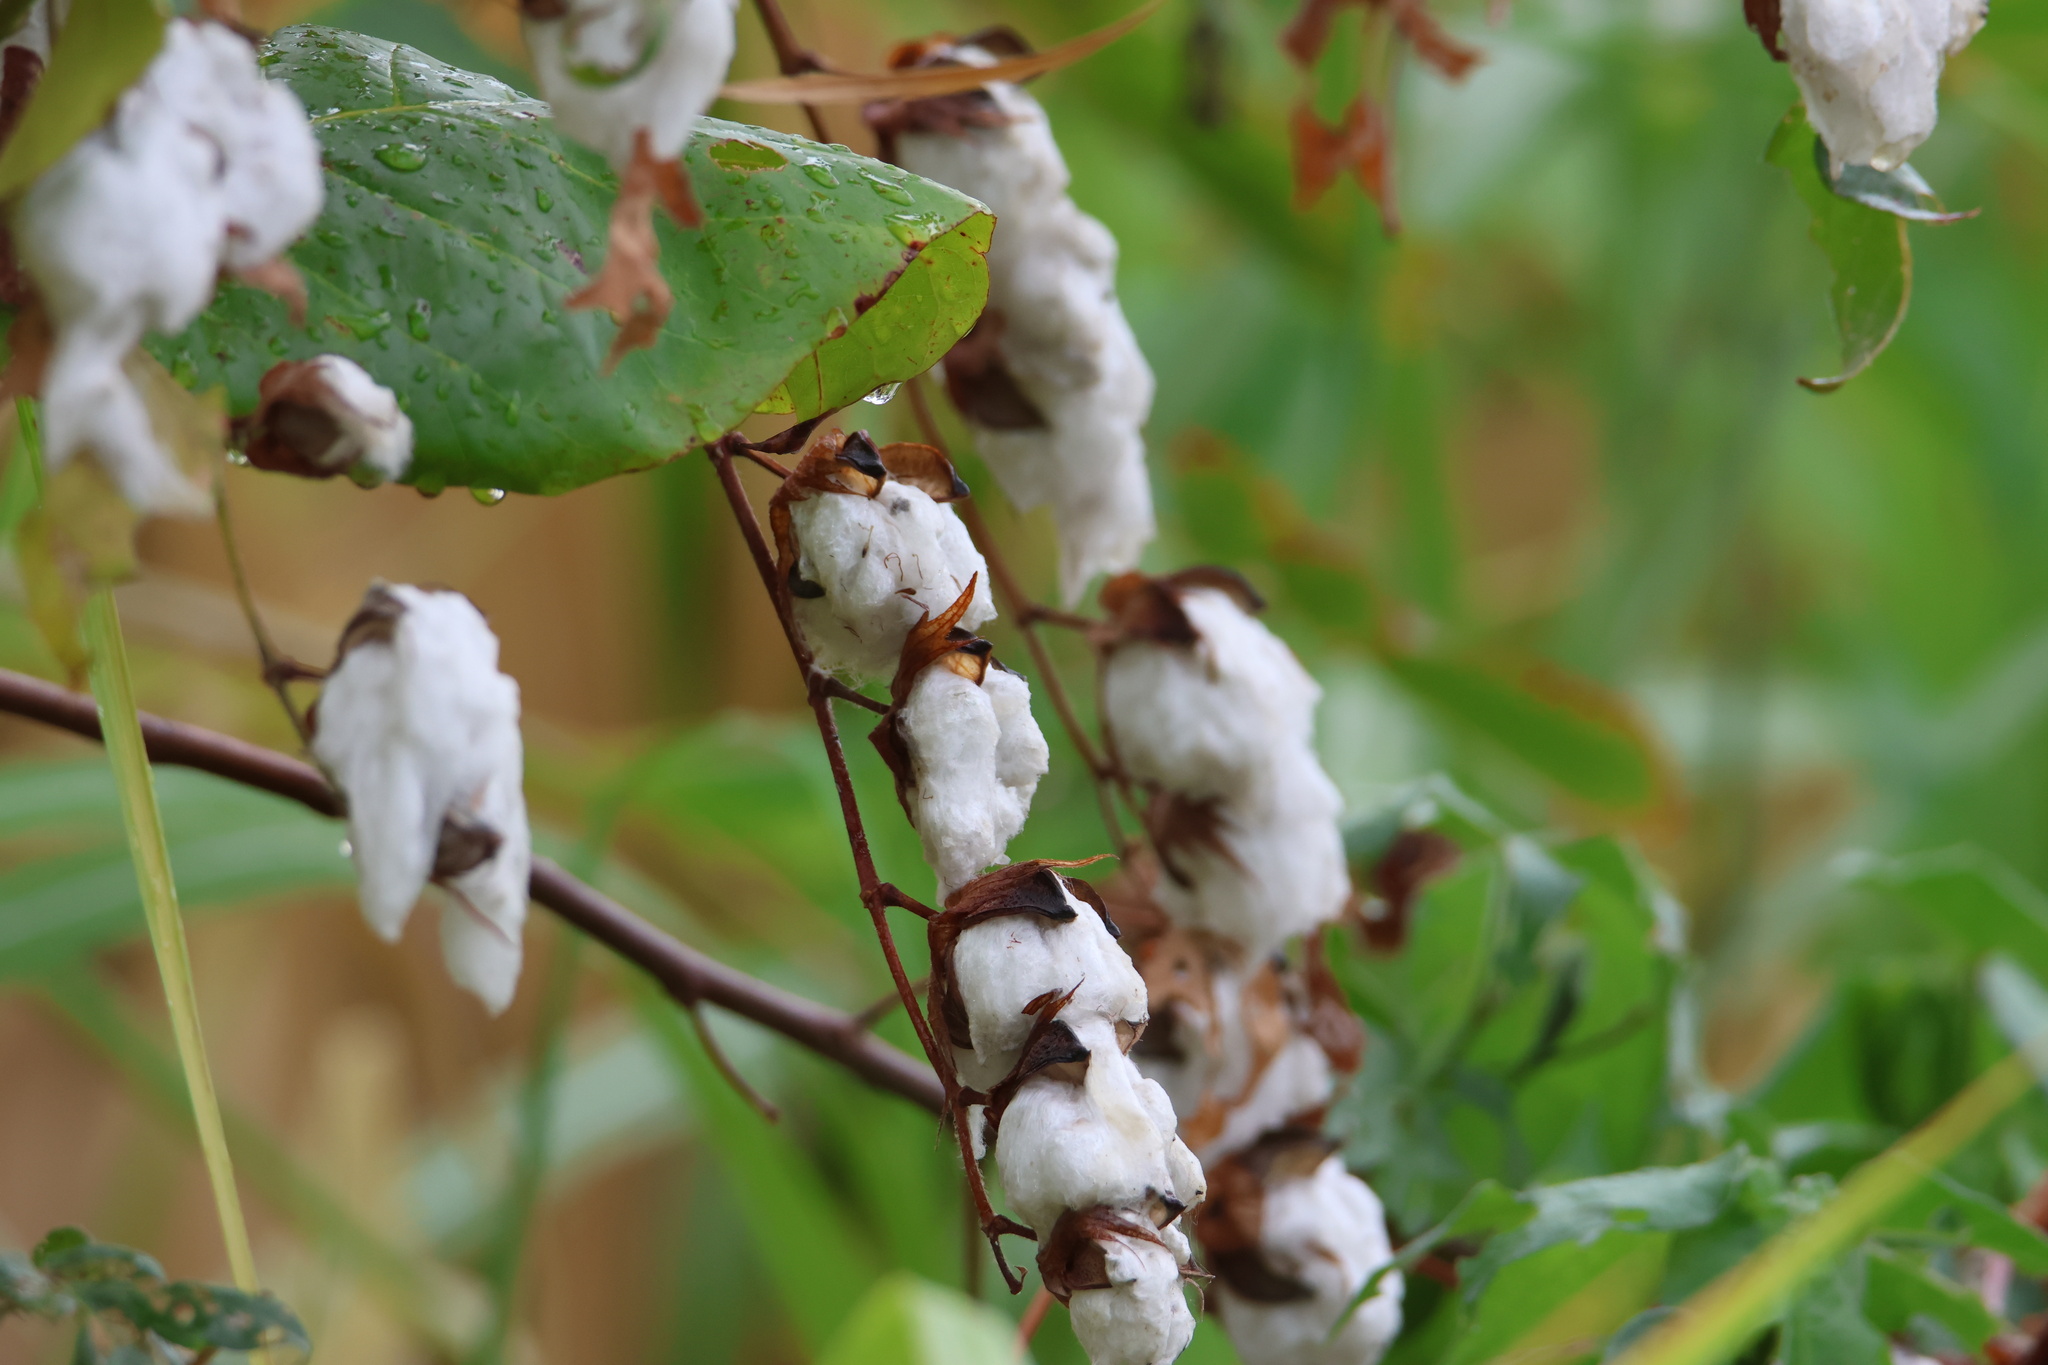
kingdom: Plantae
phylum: Tracheophyta
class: Magnoliopsida
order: Malvales
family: Malvaceae
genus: Gossypium
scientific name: Gossypium hirsutum
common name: Cotton
